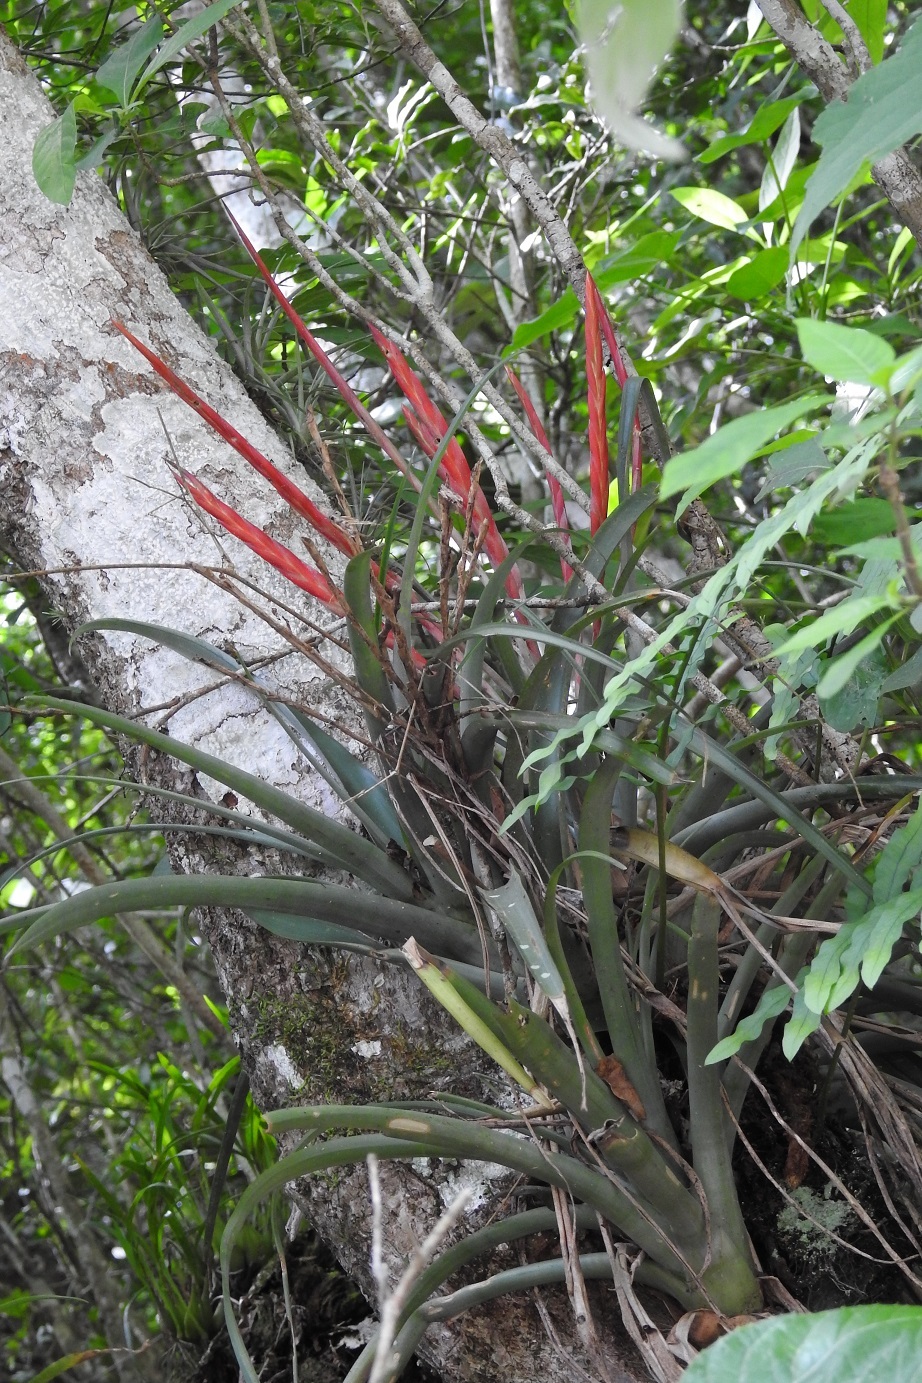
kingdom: Plantae
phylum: Tracheophyta
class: Liliopsida
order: Poales
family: Bromeliaceae
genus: Tillandsia
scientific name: Tillandsia flabellata
